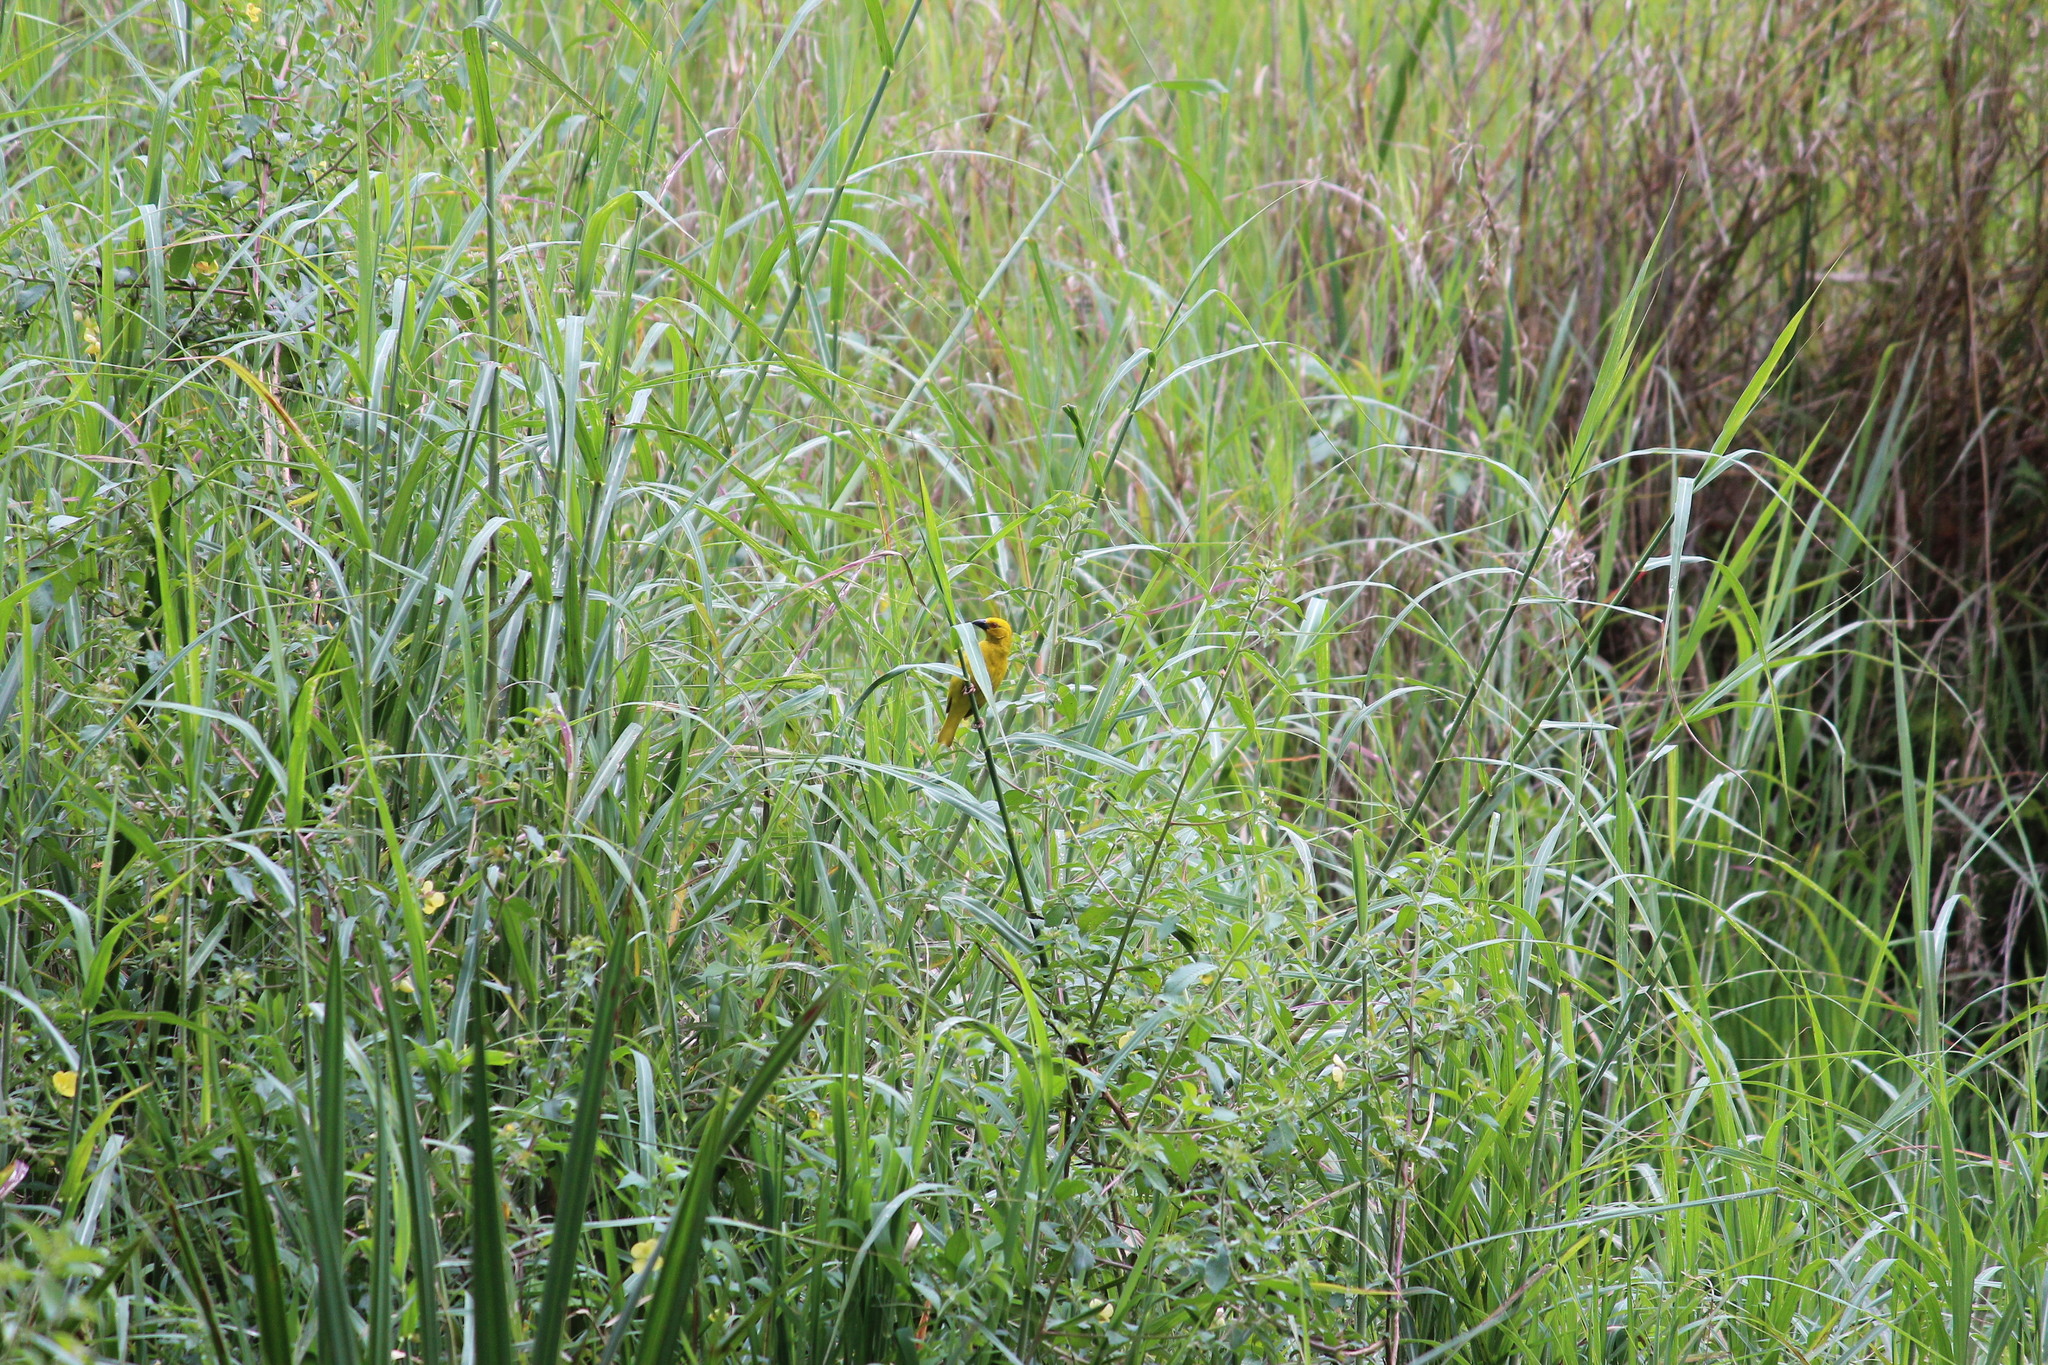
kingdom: Animalia
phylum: Chordata
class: Aves
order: Passeriformes
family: Ploceidae
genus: Ploceus
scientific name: Ploceus subaureus
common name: Yellow weaver
